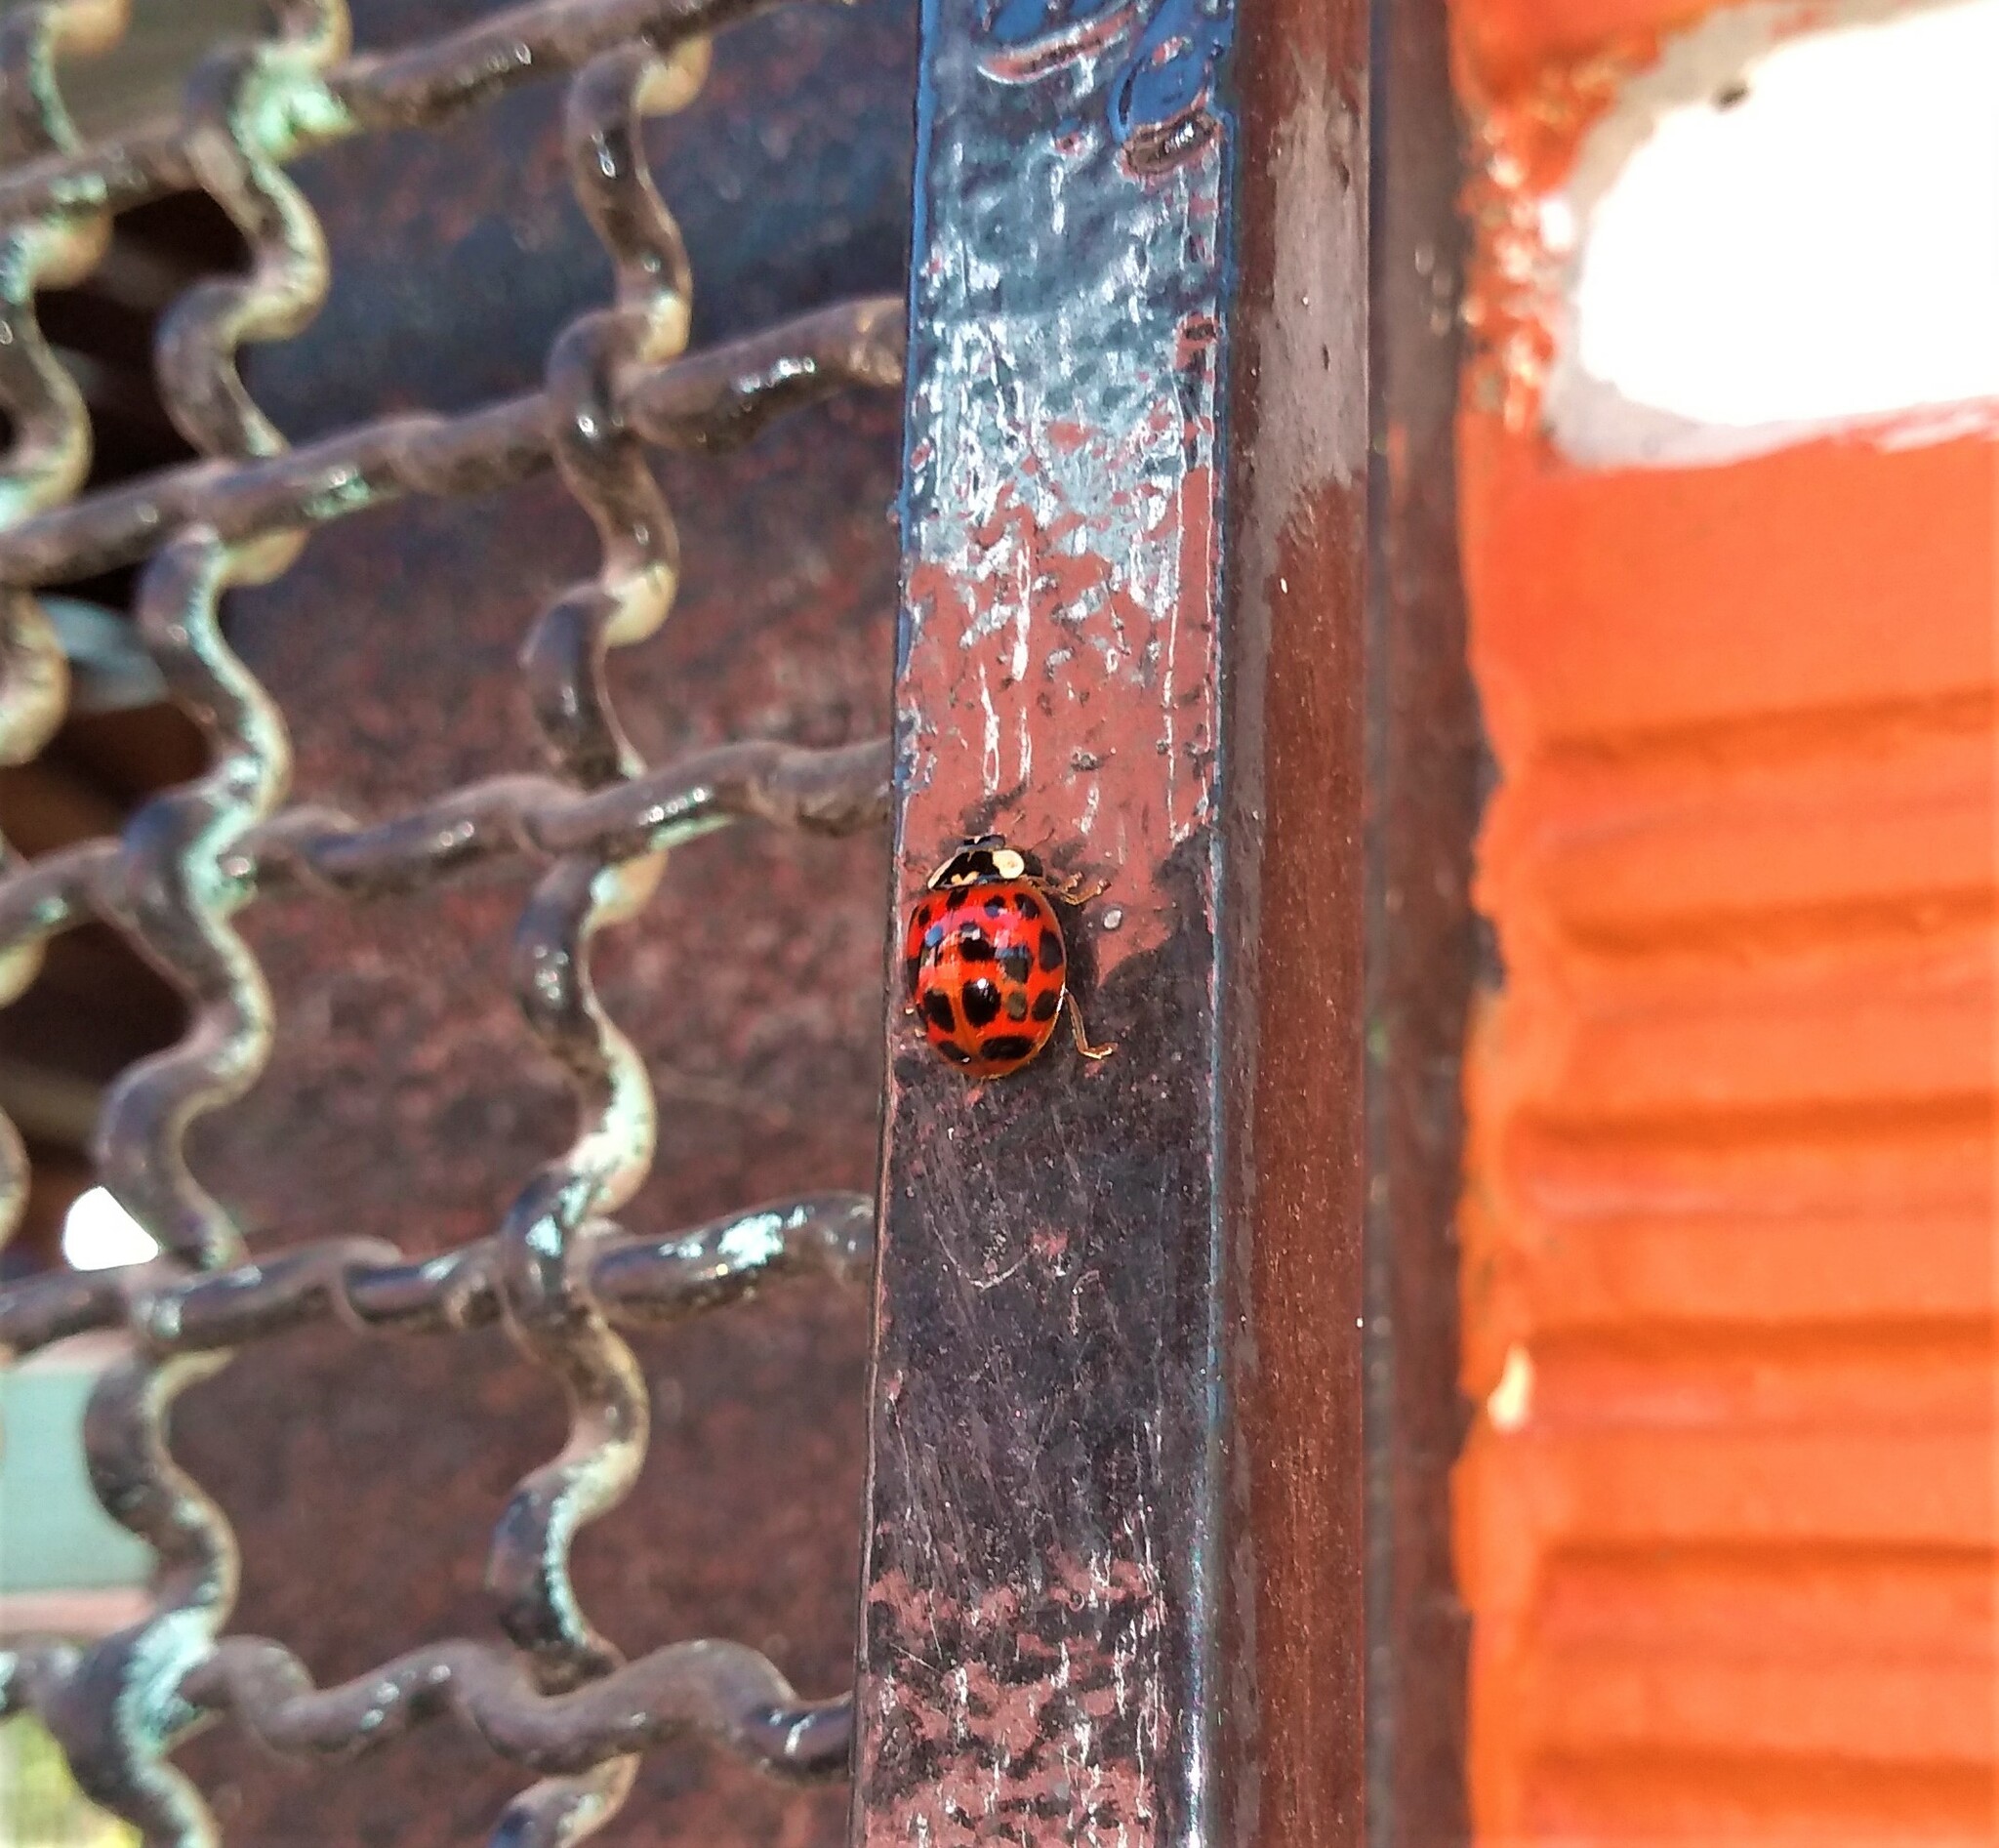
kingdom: Animalia
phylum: Arthropoda
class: Insecta
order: Coleoptera
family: Coccinellidae
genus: Harmonia
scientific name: Harmonia axyridis
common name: Harlequin ladybird
